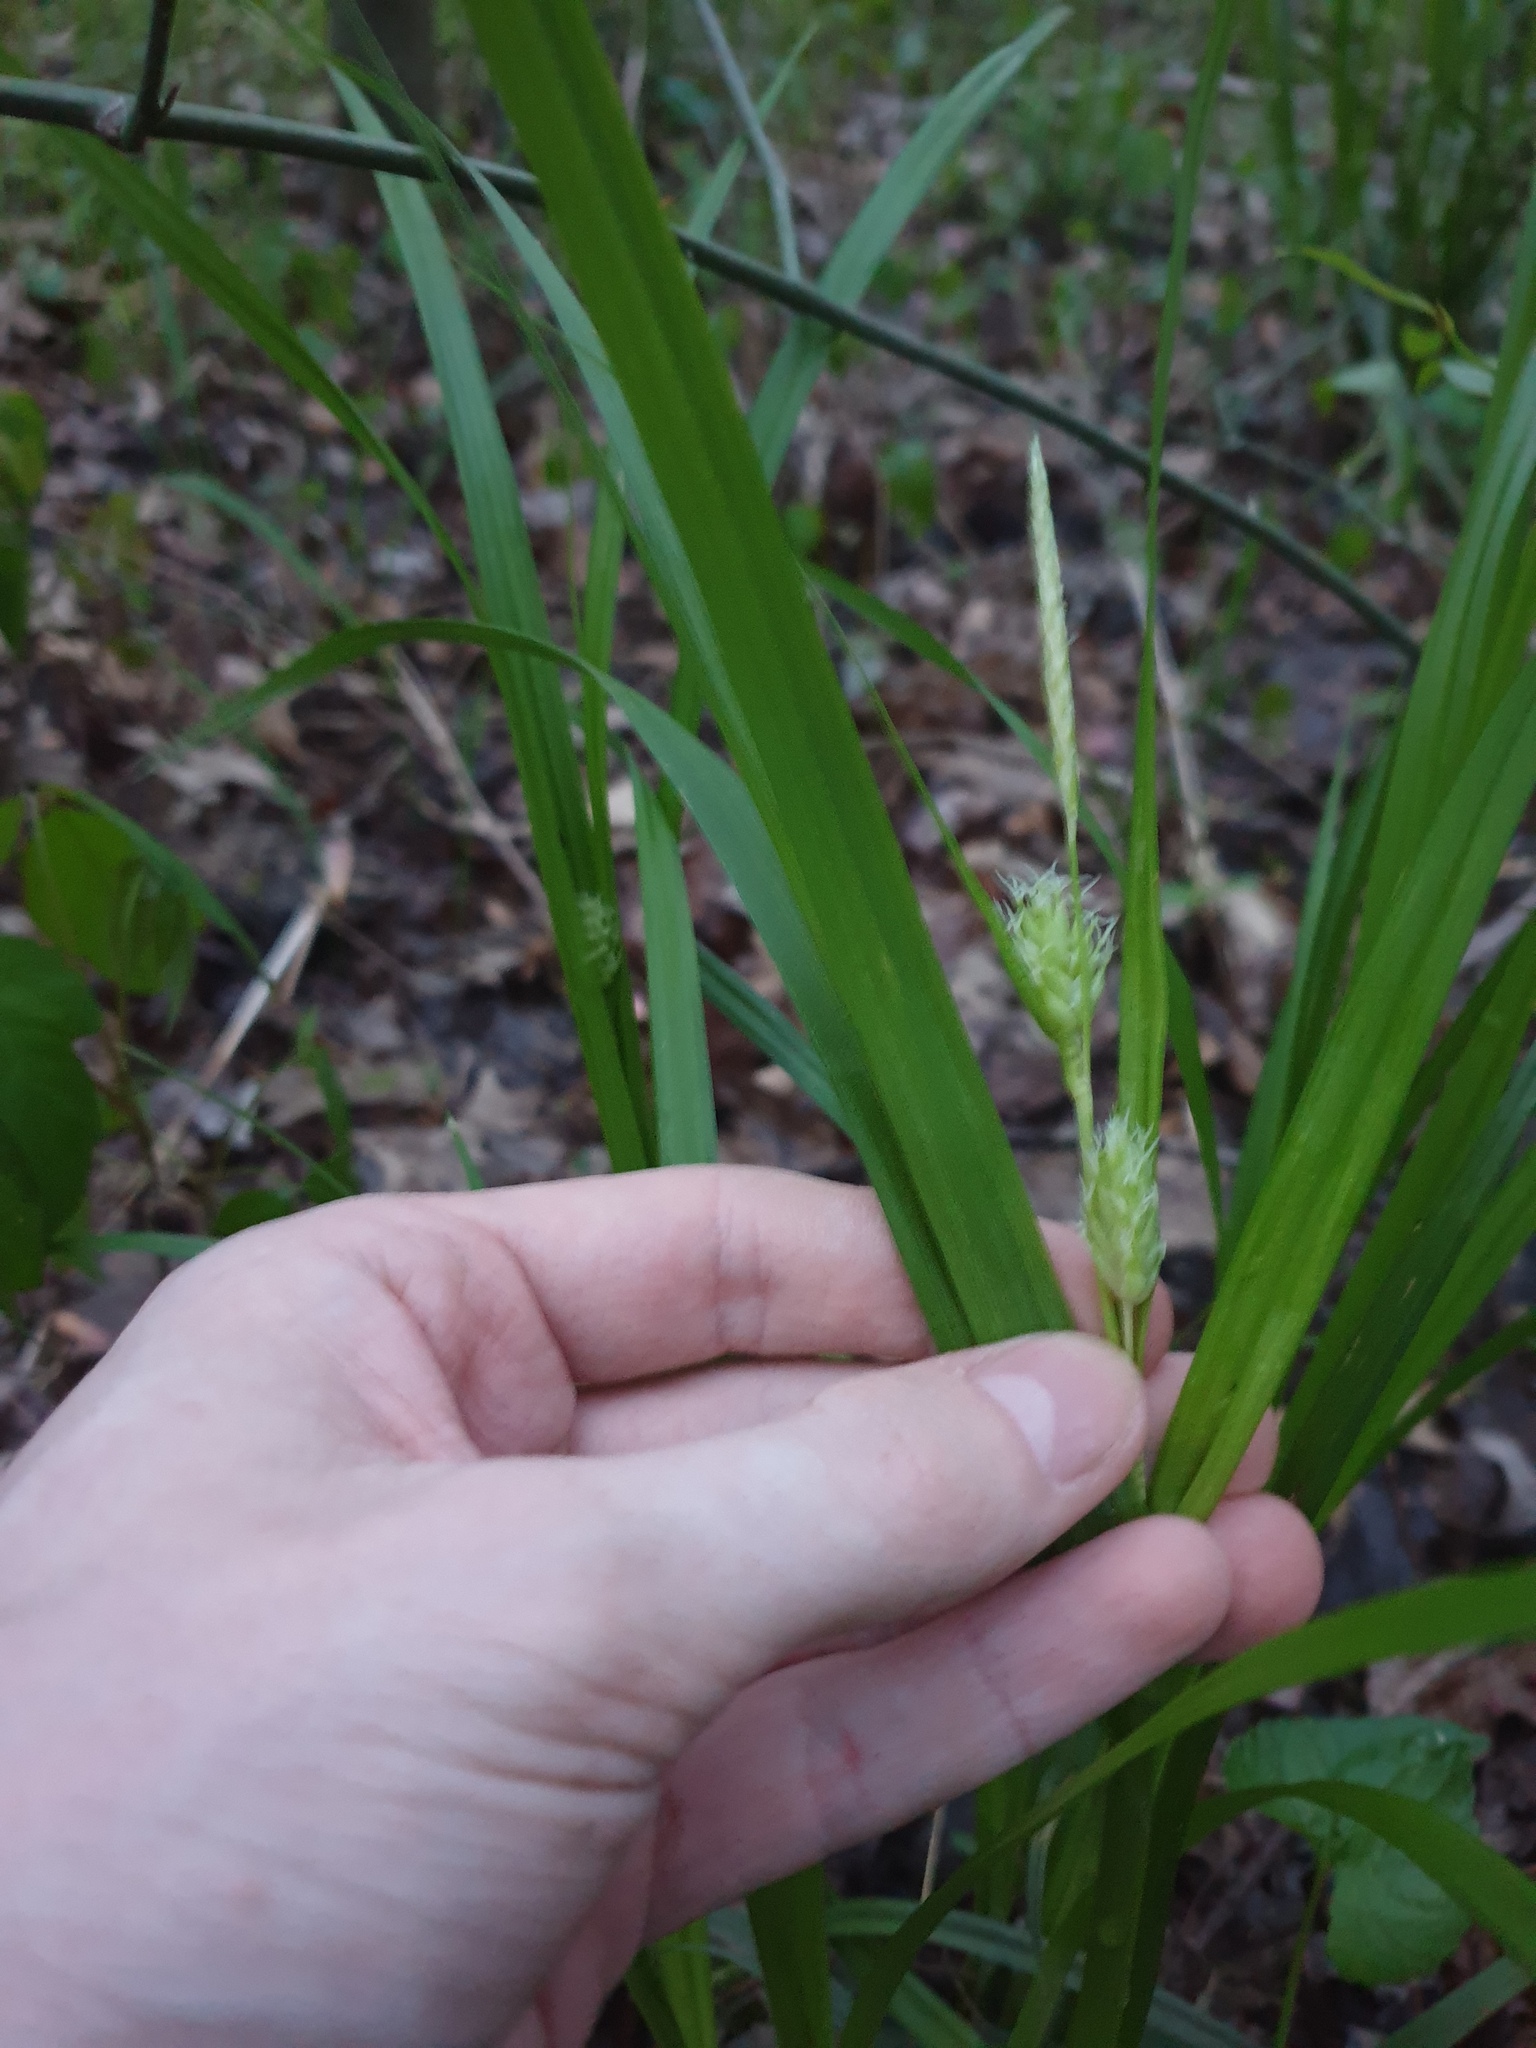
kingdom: Plantae
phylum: Tracheophyta
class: Liliopsida
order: Poales
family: Cyperaceae
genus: Carex
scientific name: Carex grayi
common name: Asa gray's sedge
